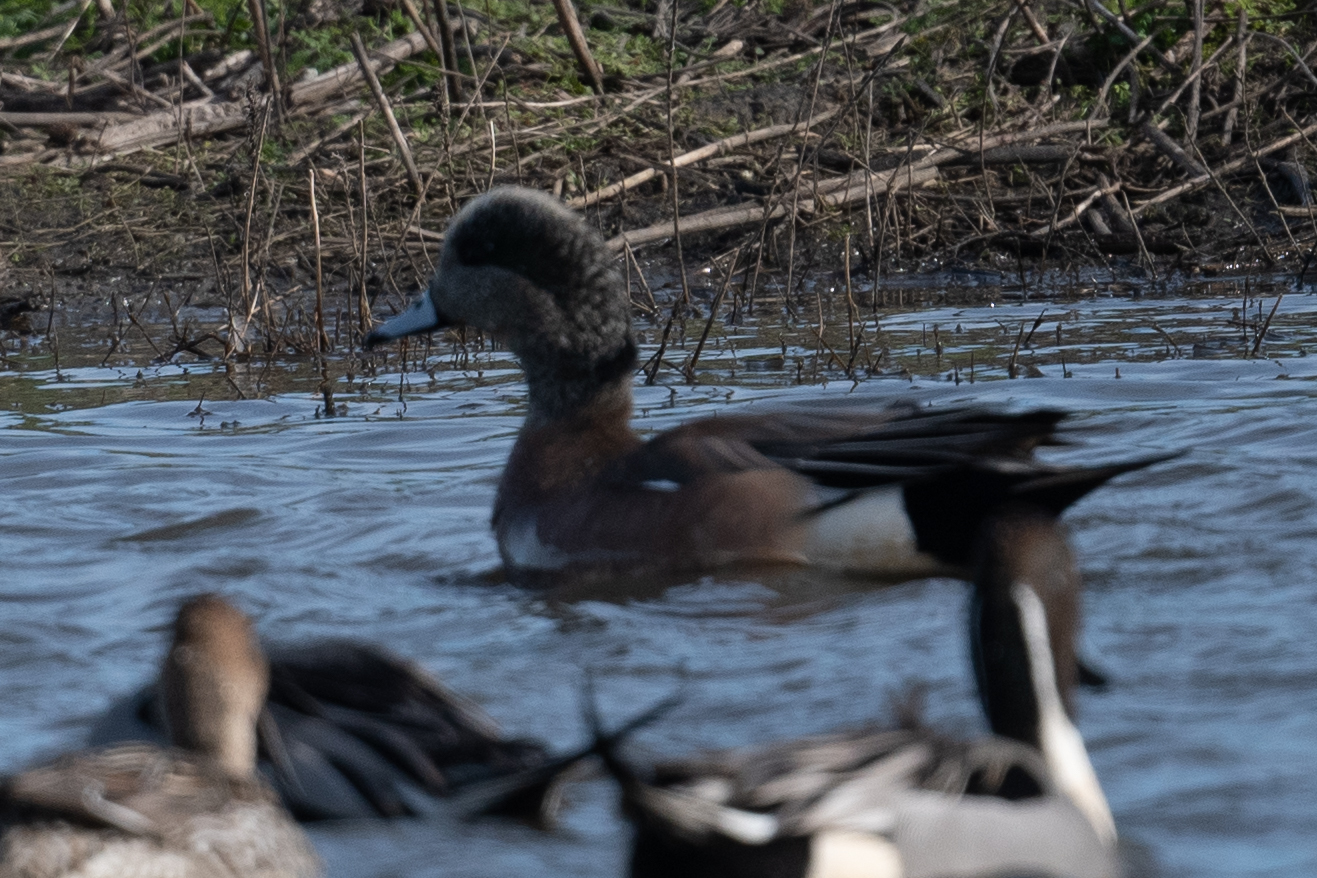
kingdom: Animalia
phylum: Chordata
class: Aves
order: Anseriformes
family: Anatidae
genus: Mareca
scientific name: Mareca americana
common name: American wigeon
